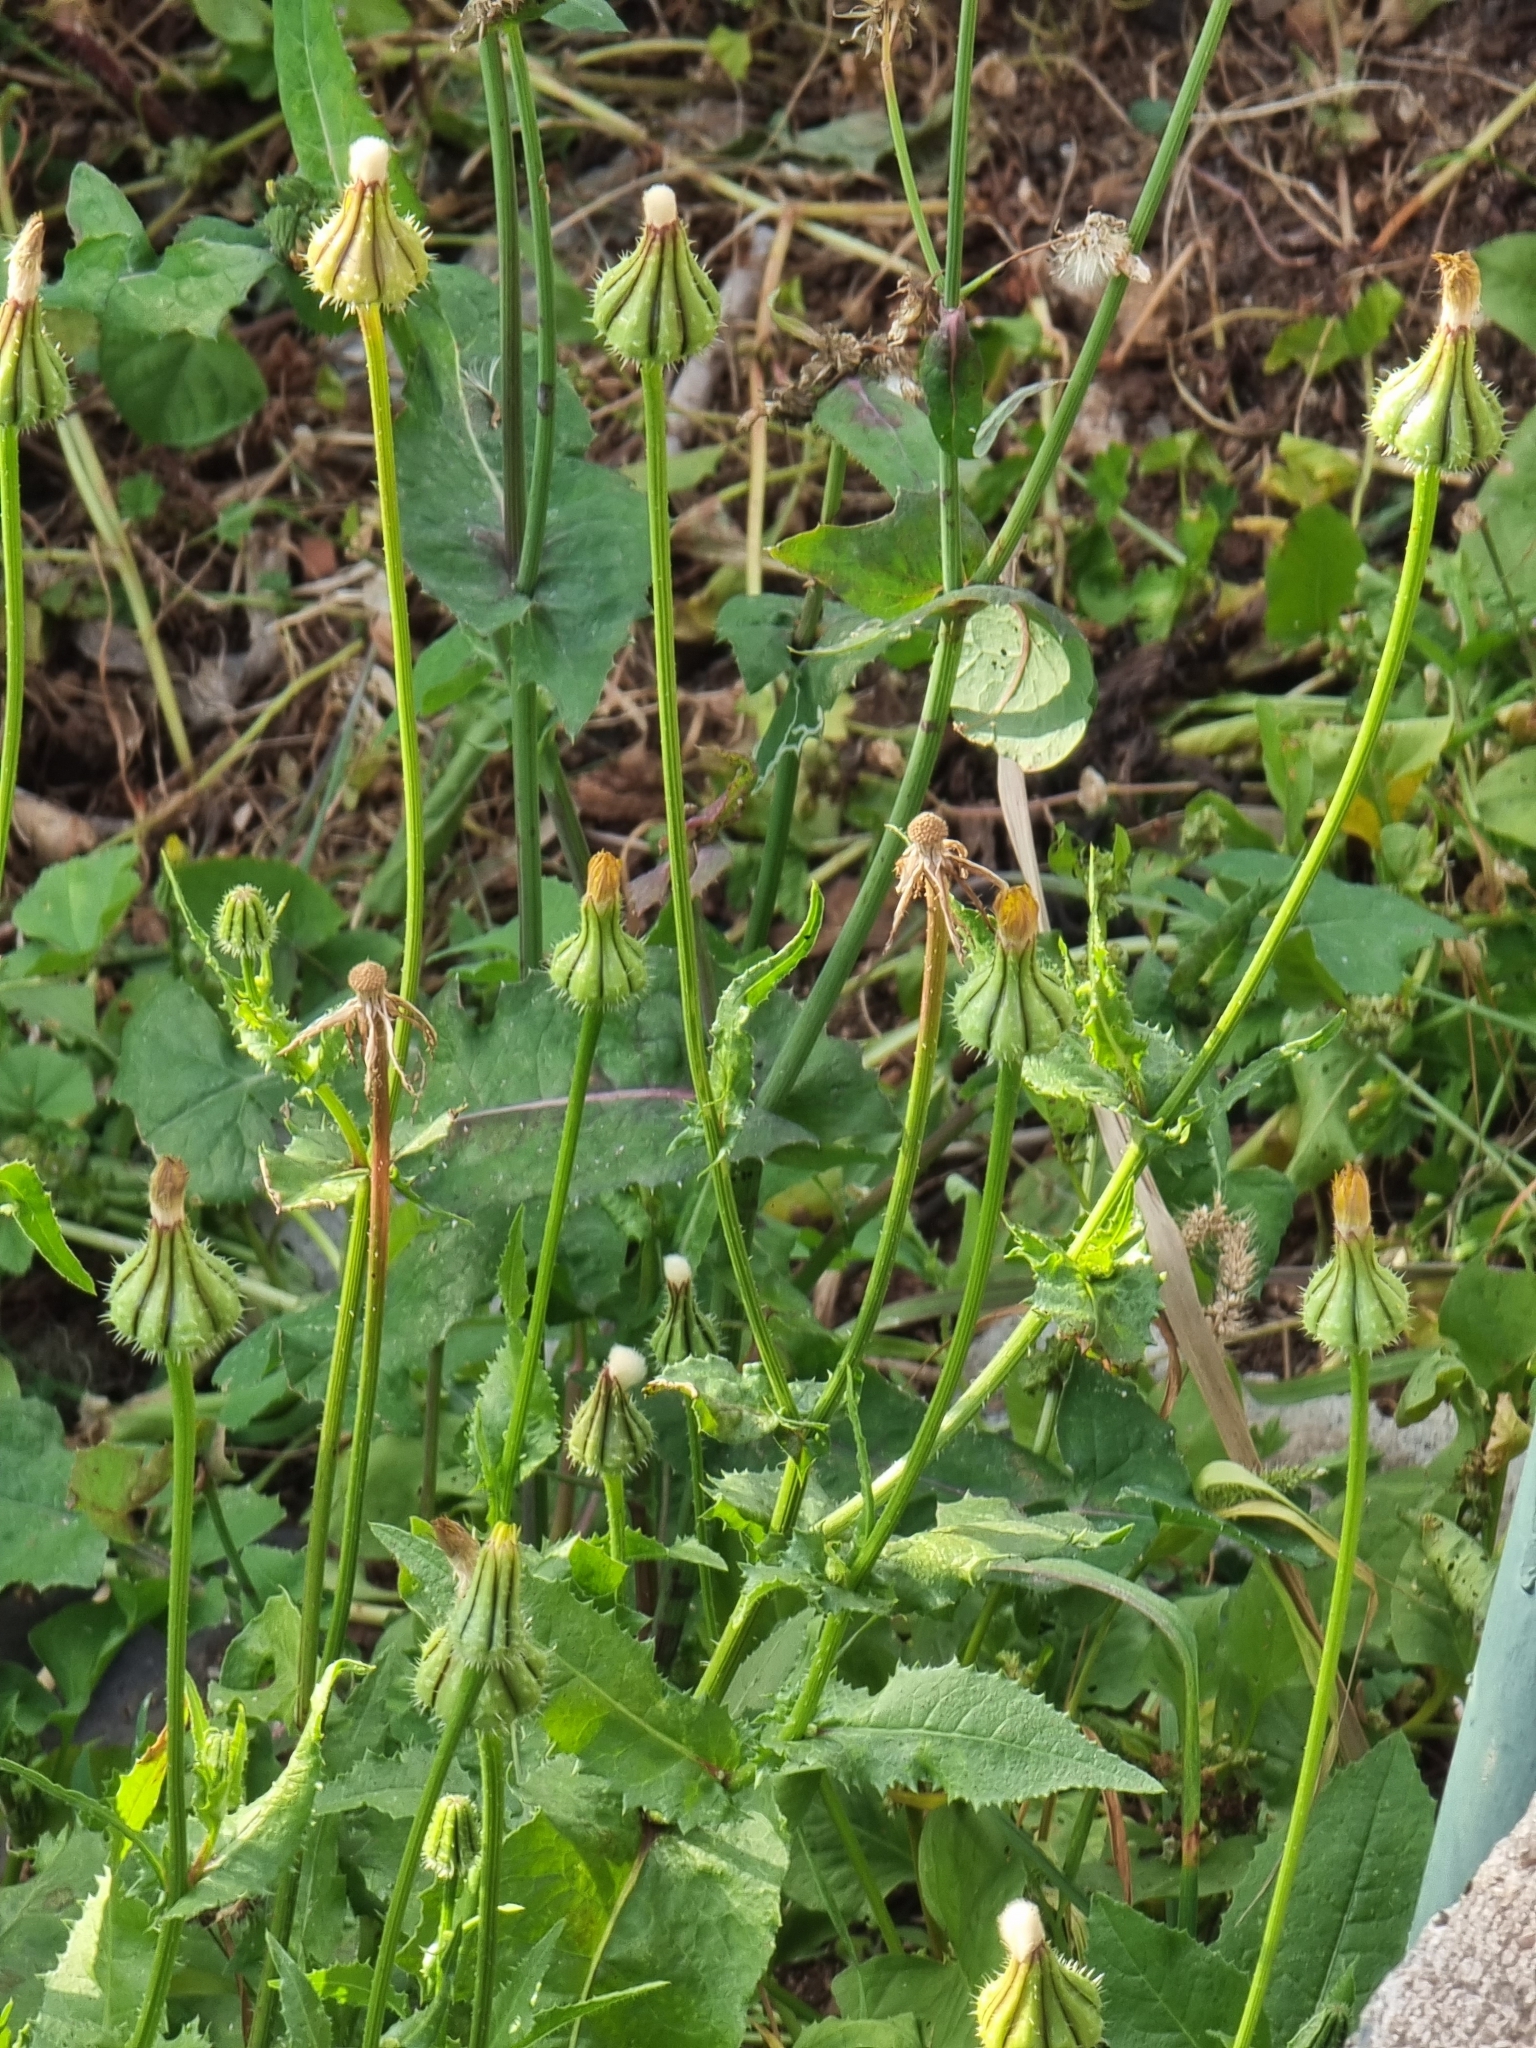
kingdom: Plantae
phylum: Tracheophyta
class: Magnoliopsida
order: Asterales
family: Asteraceae
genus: Urospermum
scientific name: Urospermum picroides
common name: False hawkbit
